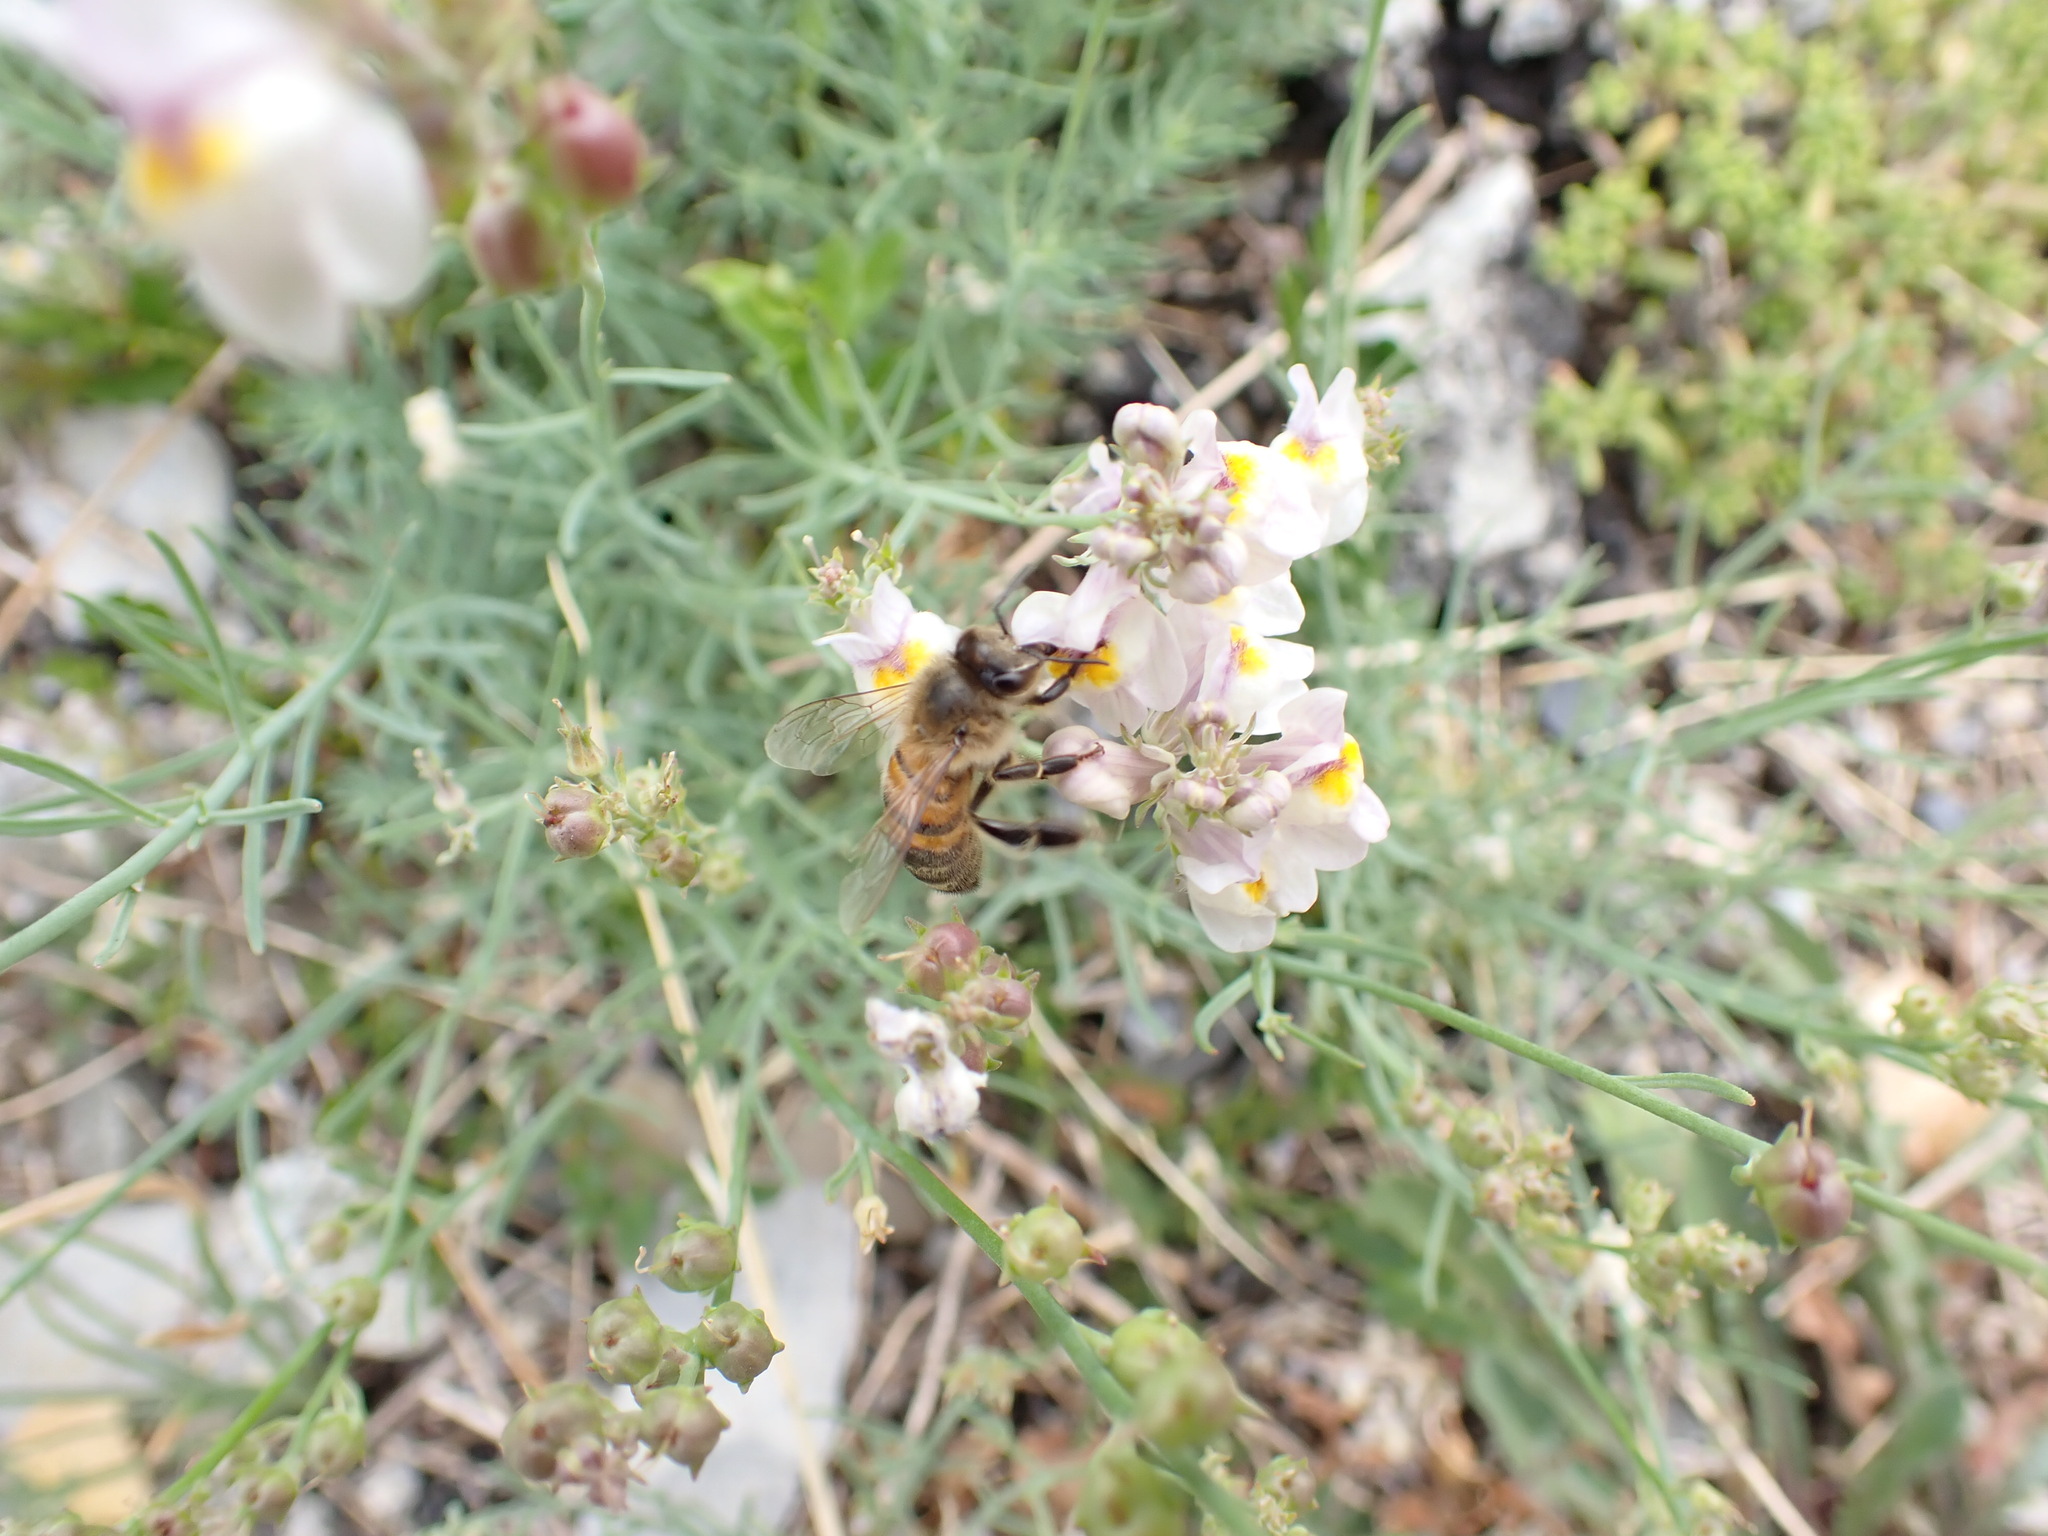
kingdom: Animalia
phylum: Arthropoda
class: Insecta
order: Hymenoptera
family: Apidae
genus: Apis
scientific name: Apis mellifera
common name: Honey bee
